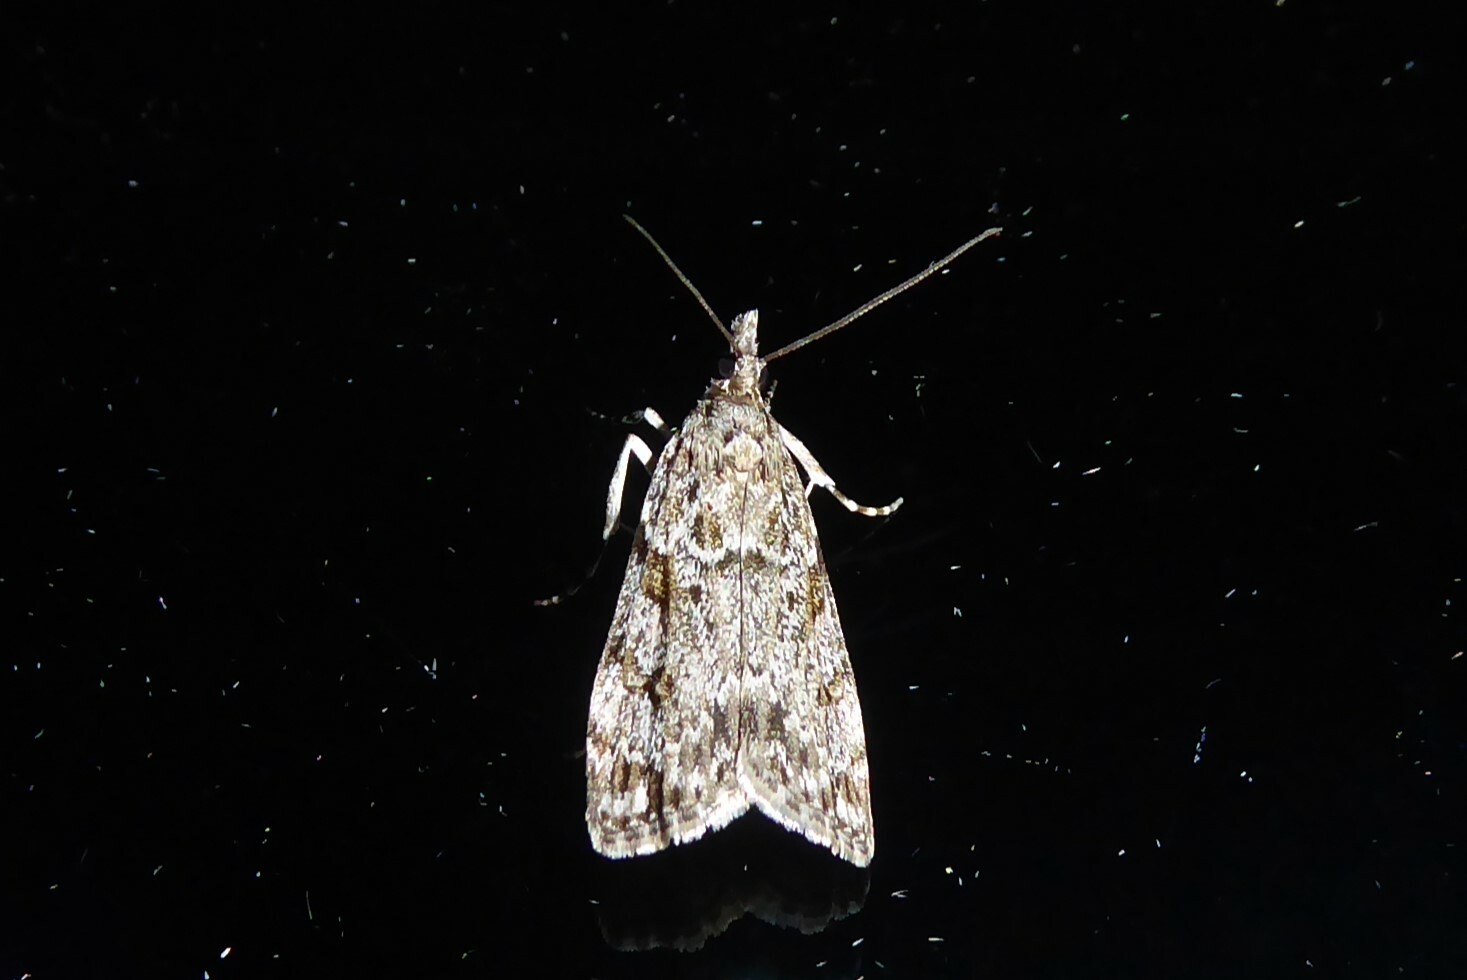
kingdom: Animalia
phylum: Arthropoda
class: Insecta
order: Lepidoptera
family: Crambidae
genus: Eudonia
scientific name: Eudonia cymatias
